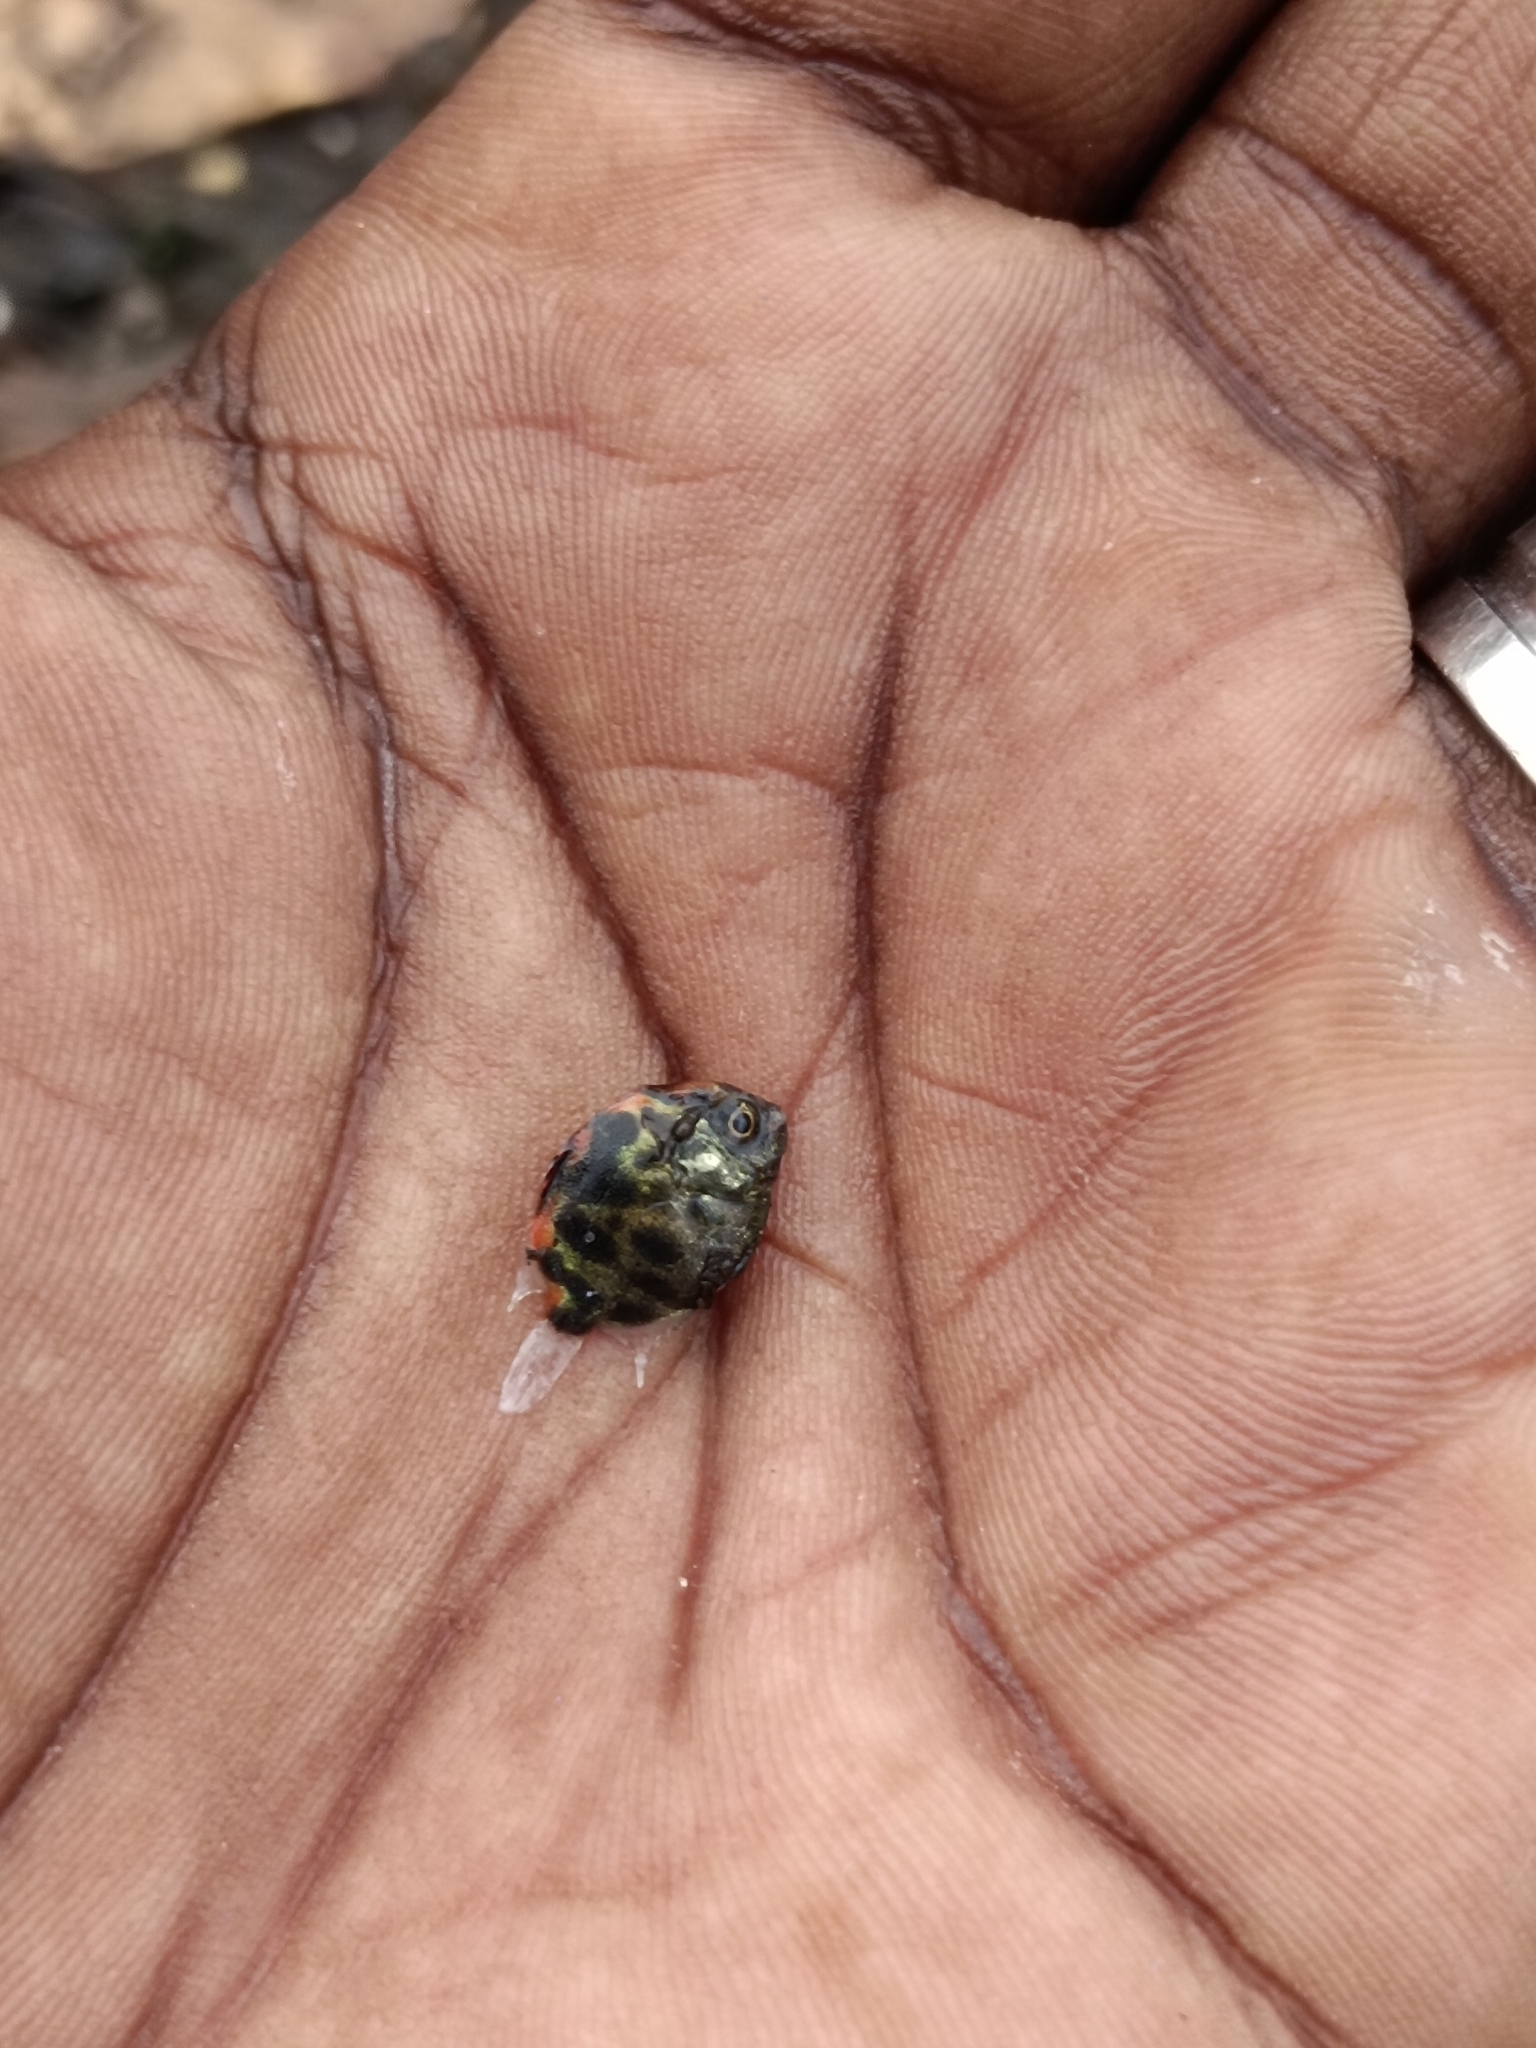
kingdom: Animalia
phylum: Chordata
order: Perciformes
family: Scatophagidae
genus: Scatophagus
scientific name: Scatophagus argus
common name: Spotted scat
